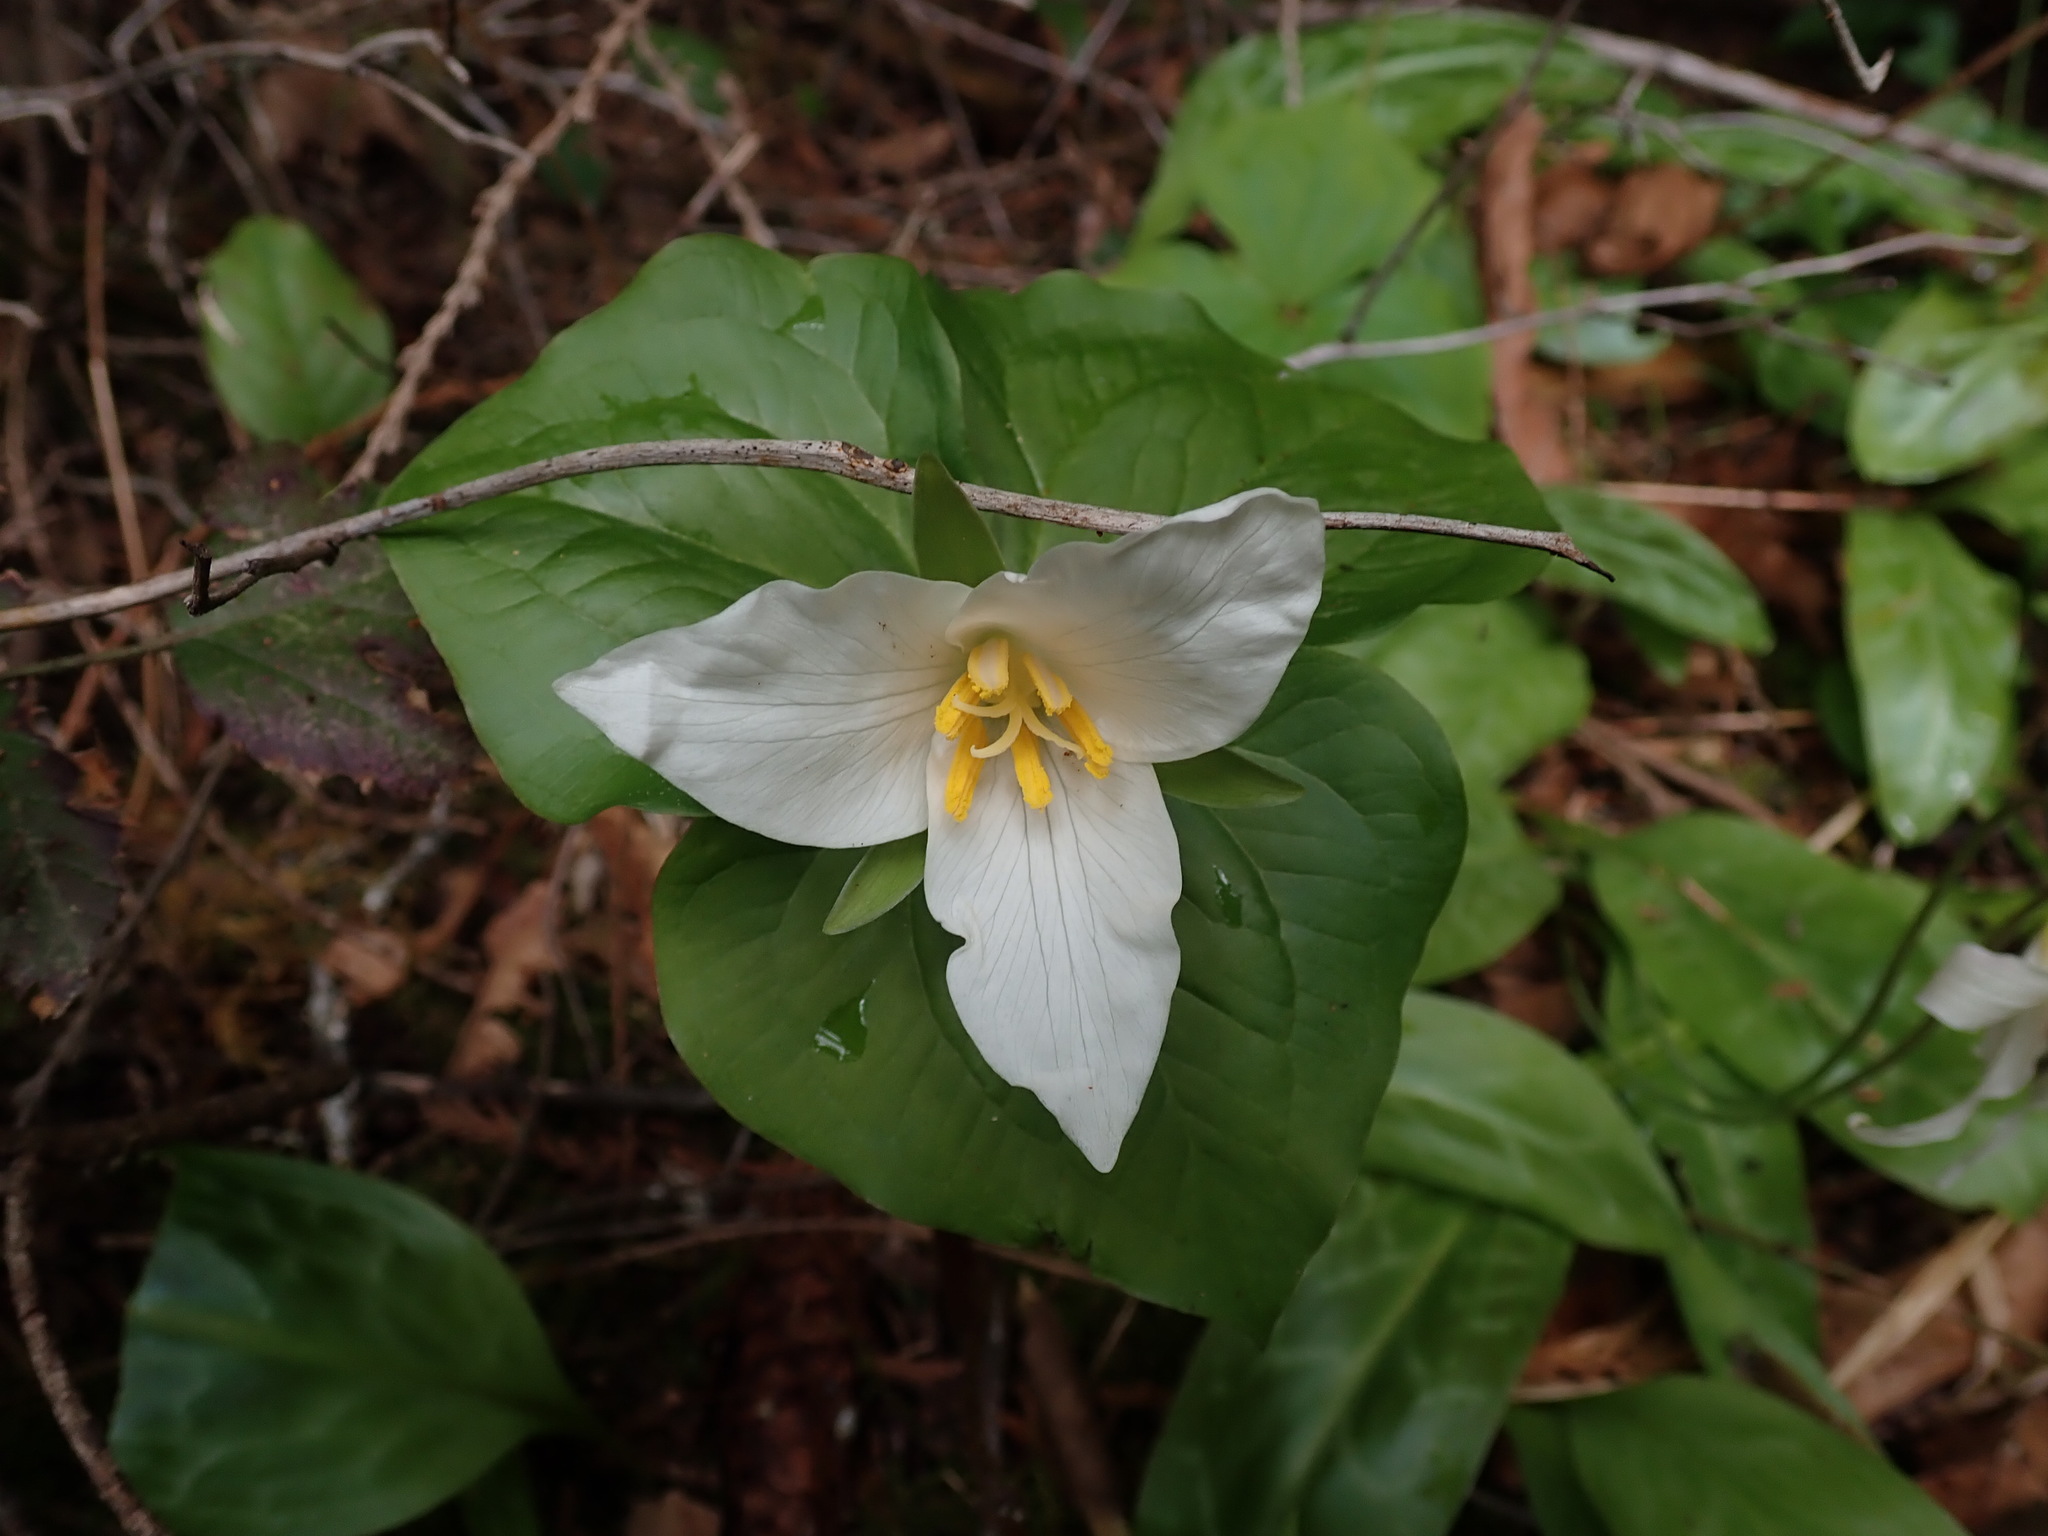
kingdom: Plantae
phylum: Tracheophyta
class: Liliopsida
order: Liliales
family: Melanthiaceae
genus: Trillium
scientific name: Trillium ovatum
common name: Pacific trillium
